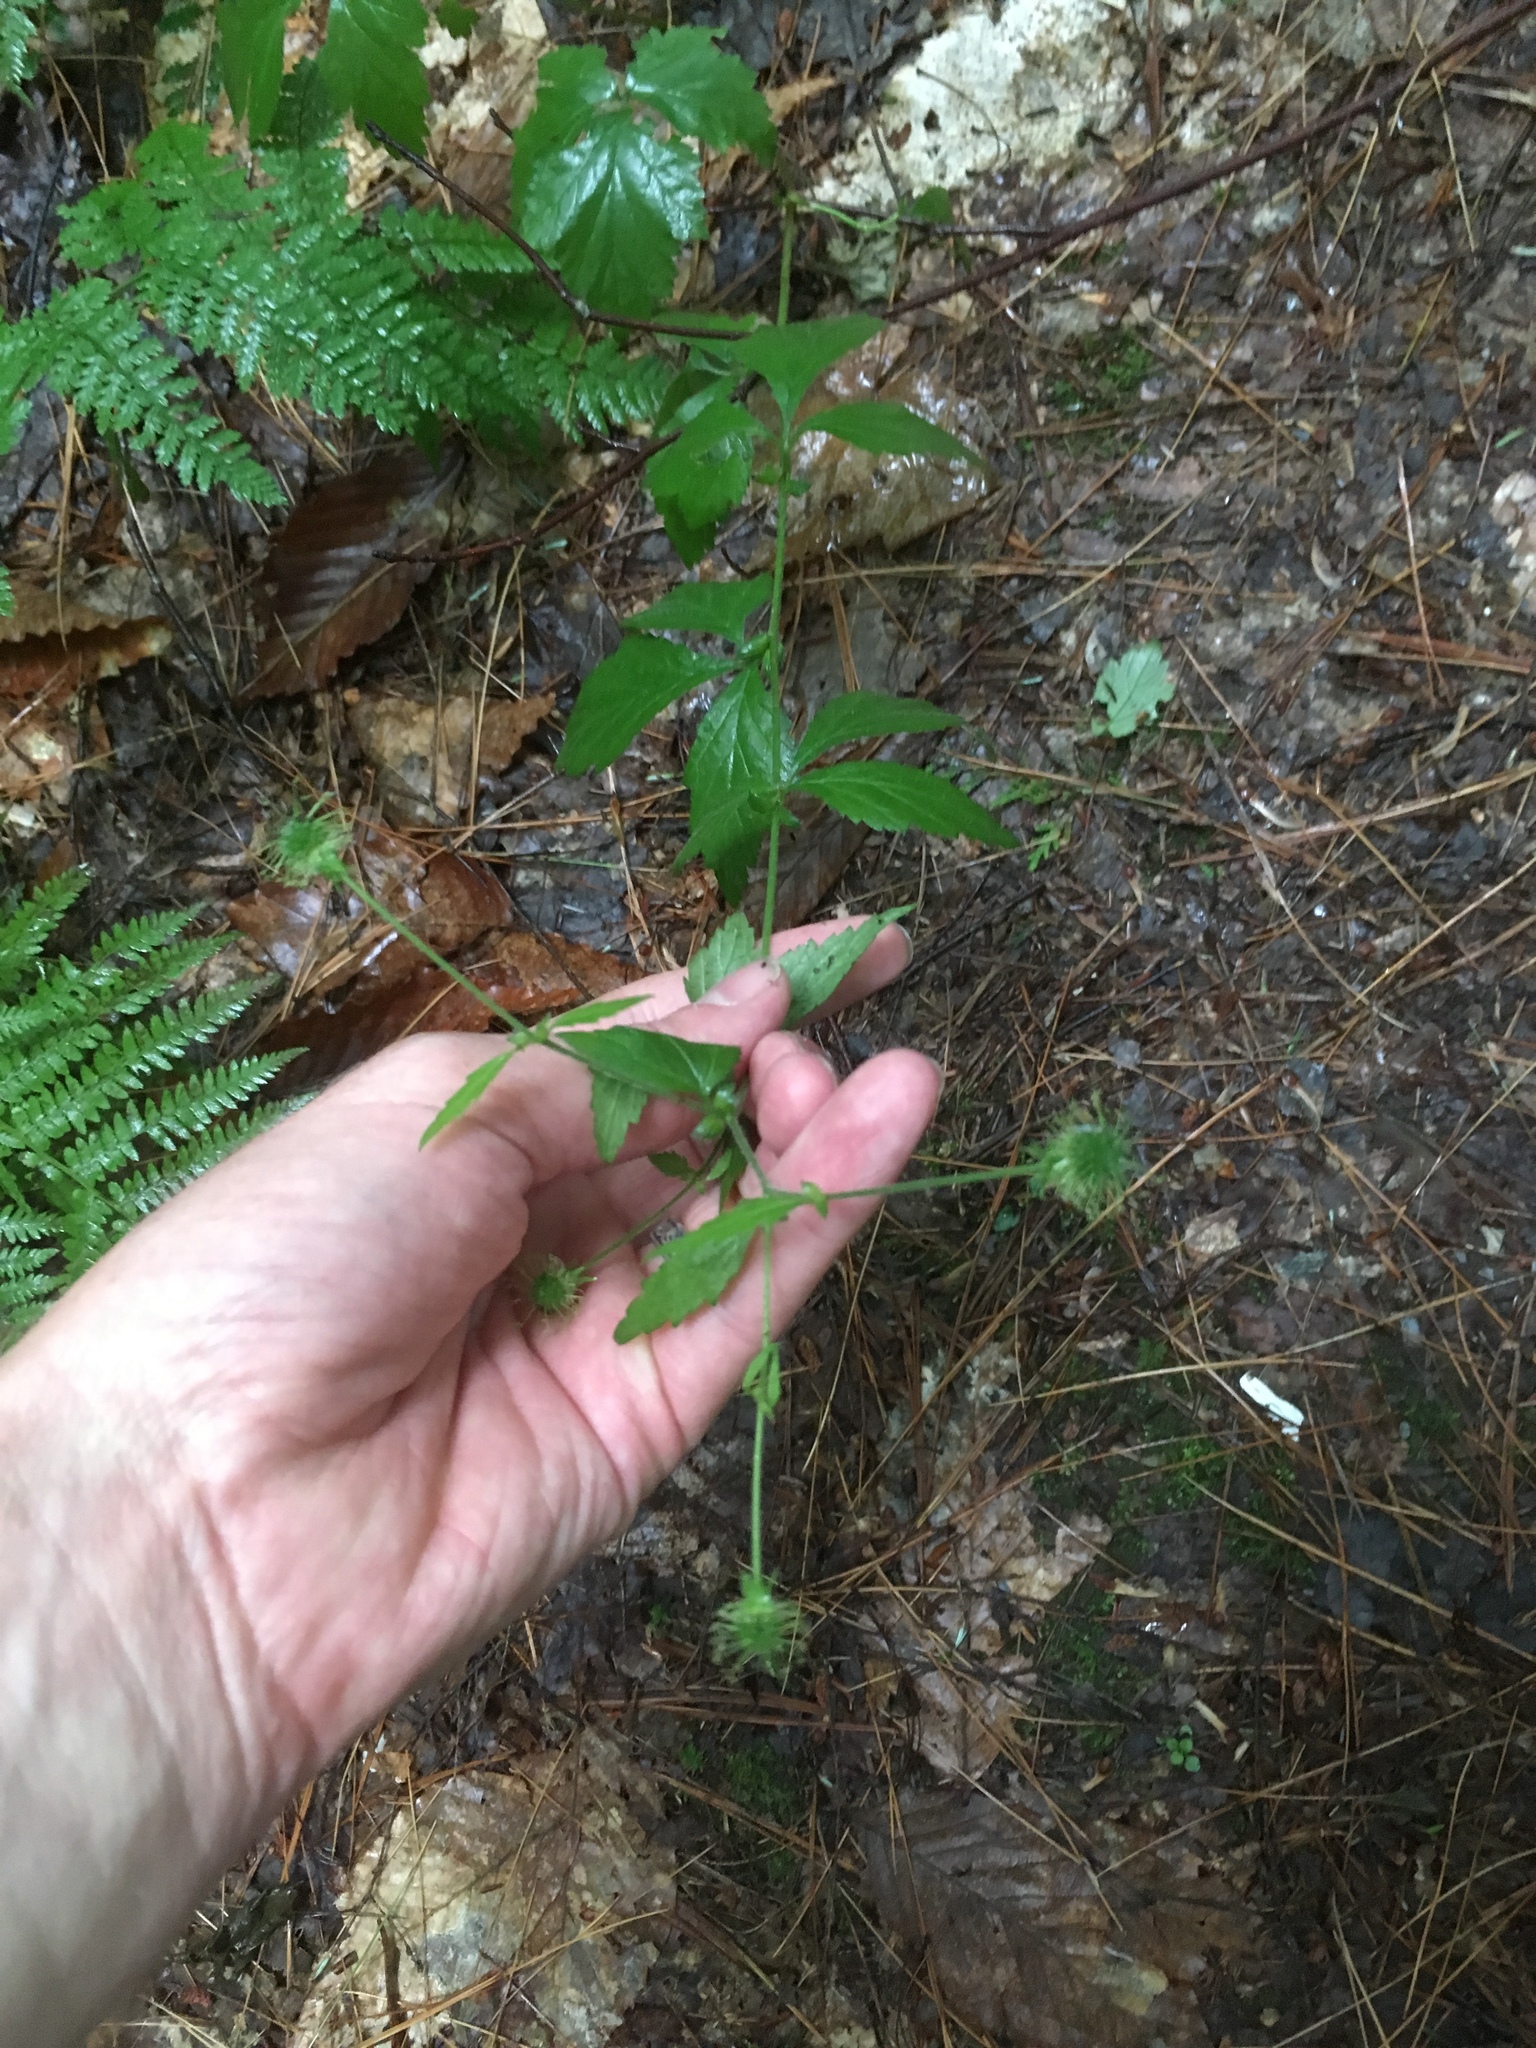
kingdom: Plantae
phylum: Tracheophyta
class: Magnoliopsida
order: Rosales
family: Rosaceae
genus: Geum
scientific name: Geum canadense
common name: White avens
